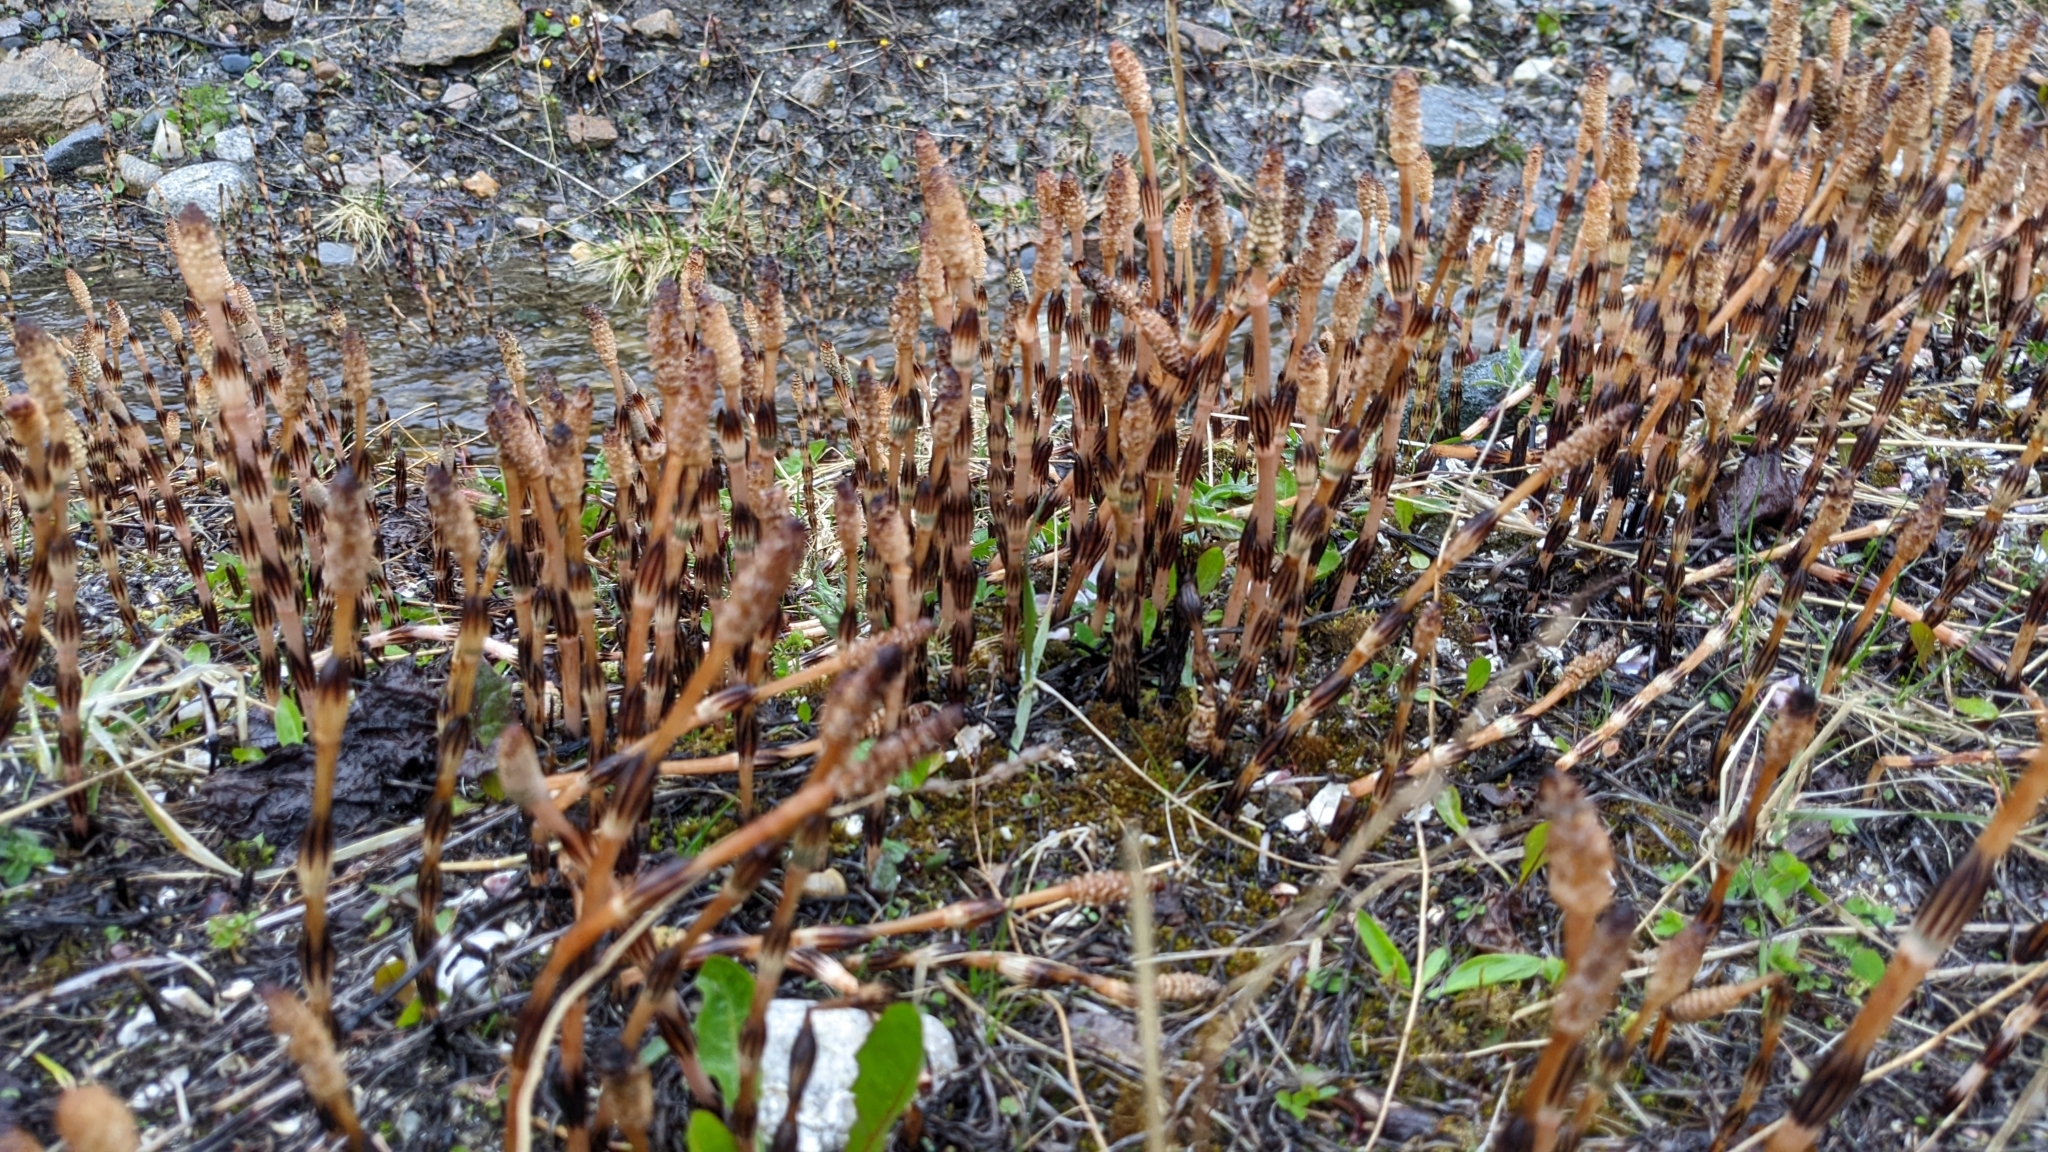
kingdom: Plantae
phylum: Tracheophyta
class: Polypodiopsida
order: Equisetales
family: Equisetaceae
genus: Equisetum
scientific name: Equisetum arvense
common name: Field horsetail
